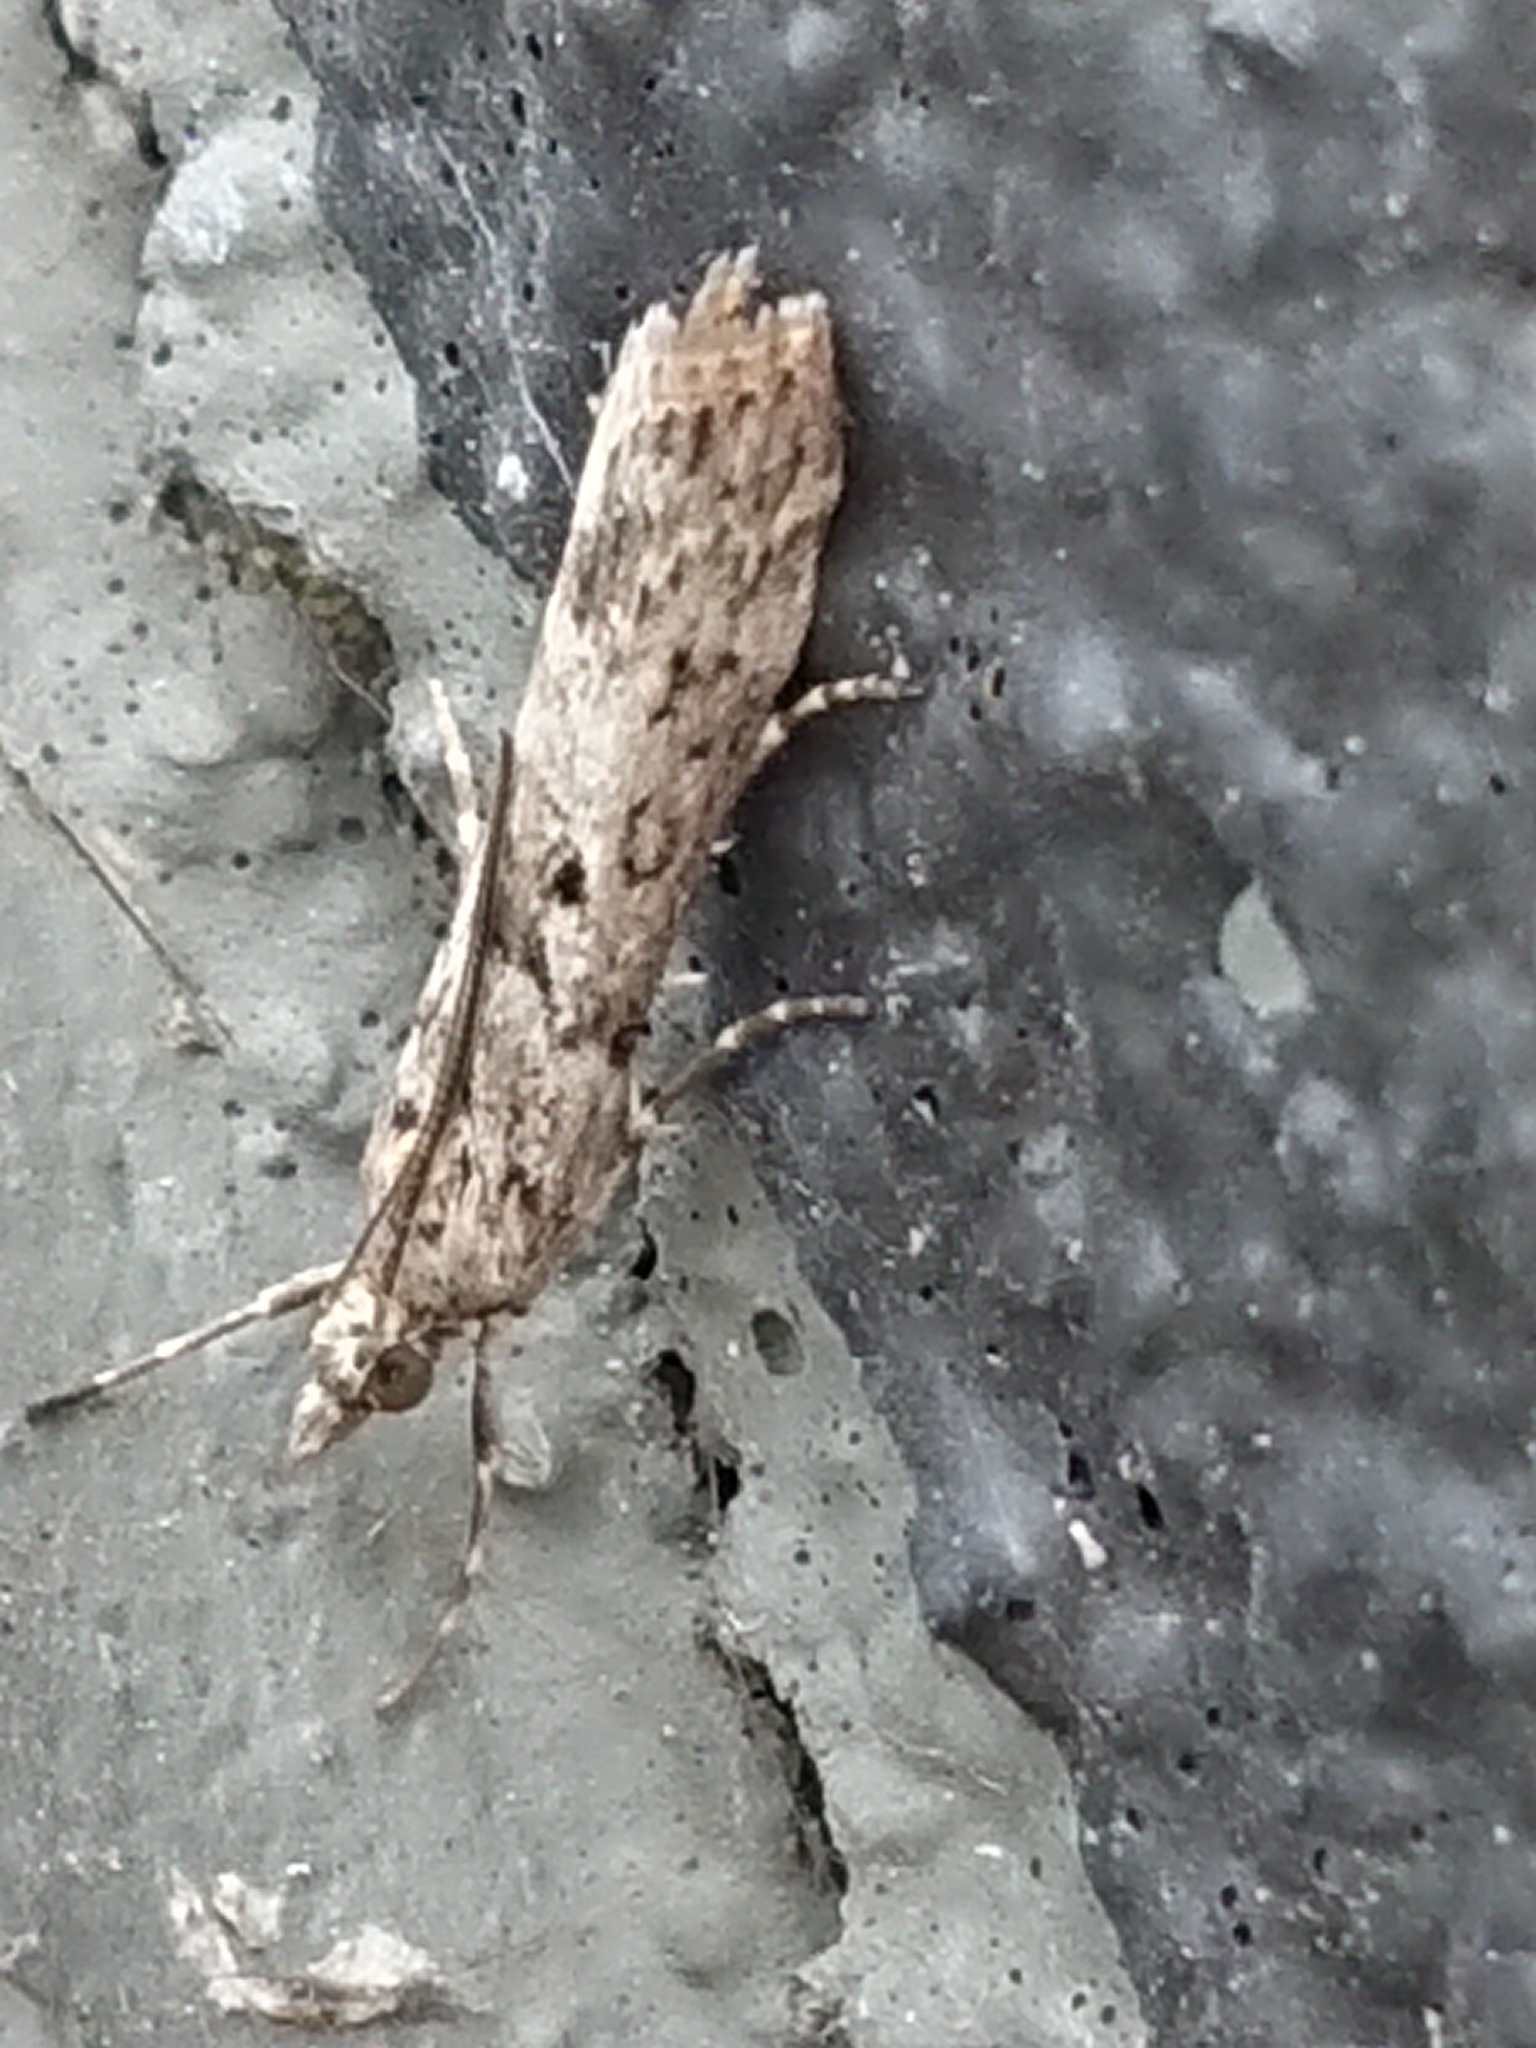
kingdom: Animalia
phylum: Arthropoda
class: Insecta
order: Lepidoptera
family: Crambidae
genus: Eudonia
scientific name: Eudonia leptalea
